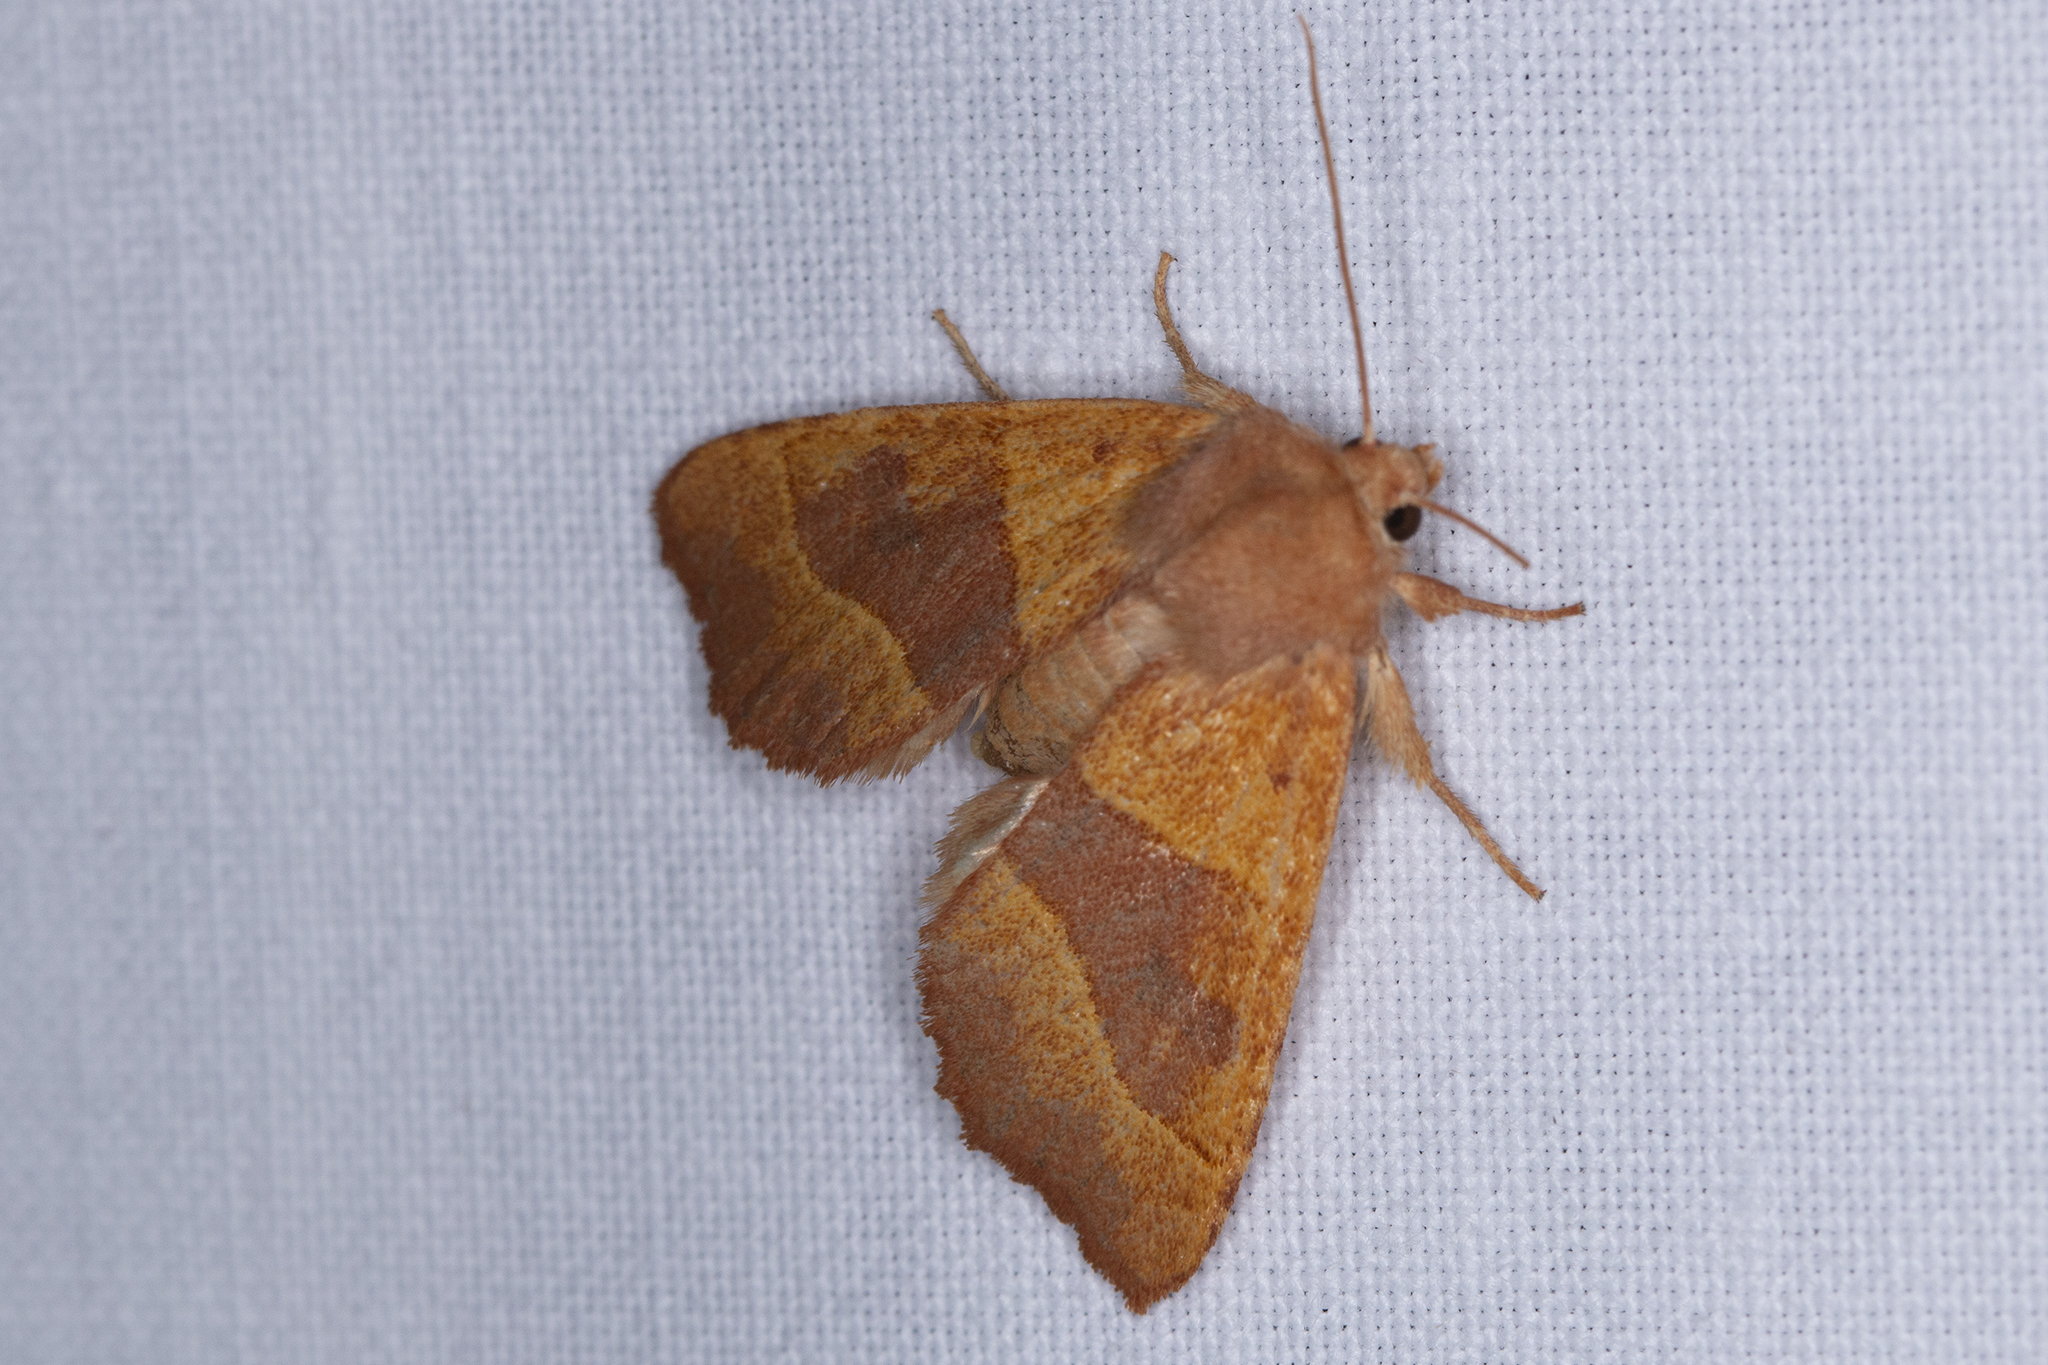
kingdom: Animalia
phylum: Arthropoda
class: Insecta
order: Lepidoptera
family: Noctuidae
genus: Atethmia
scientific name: Atethmia centrago
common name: Centre-barred sallow
